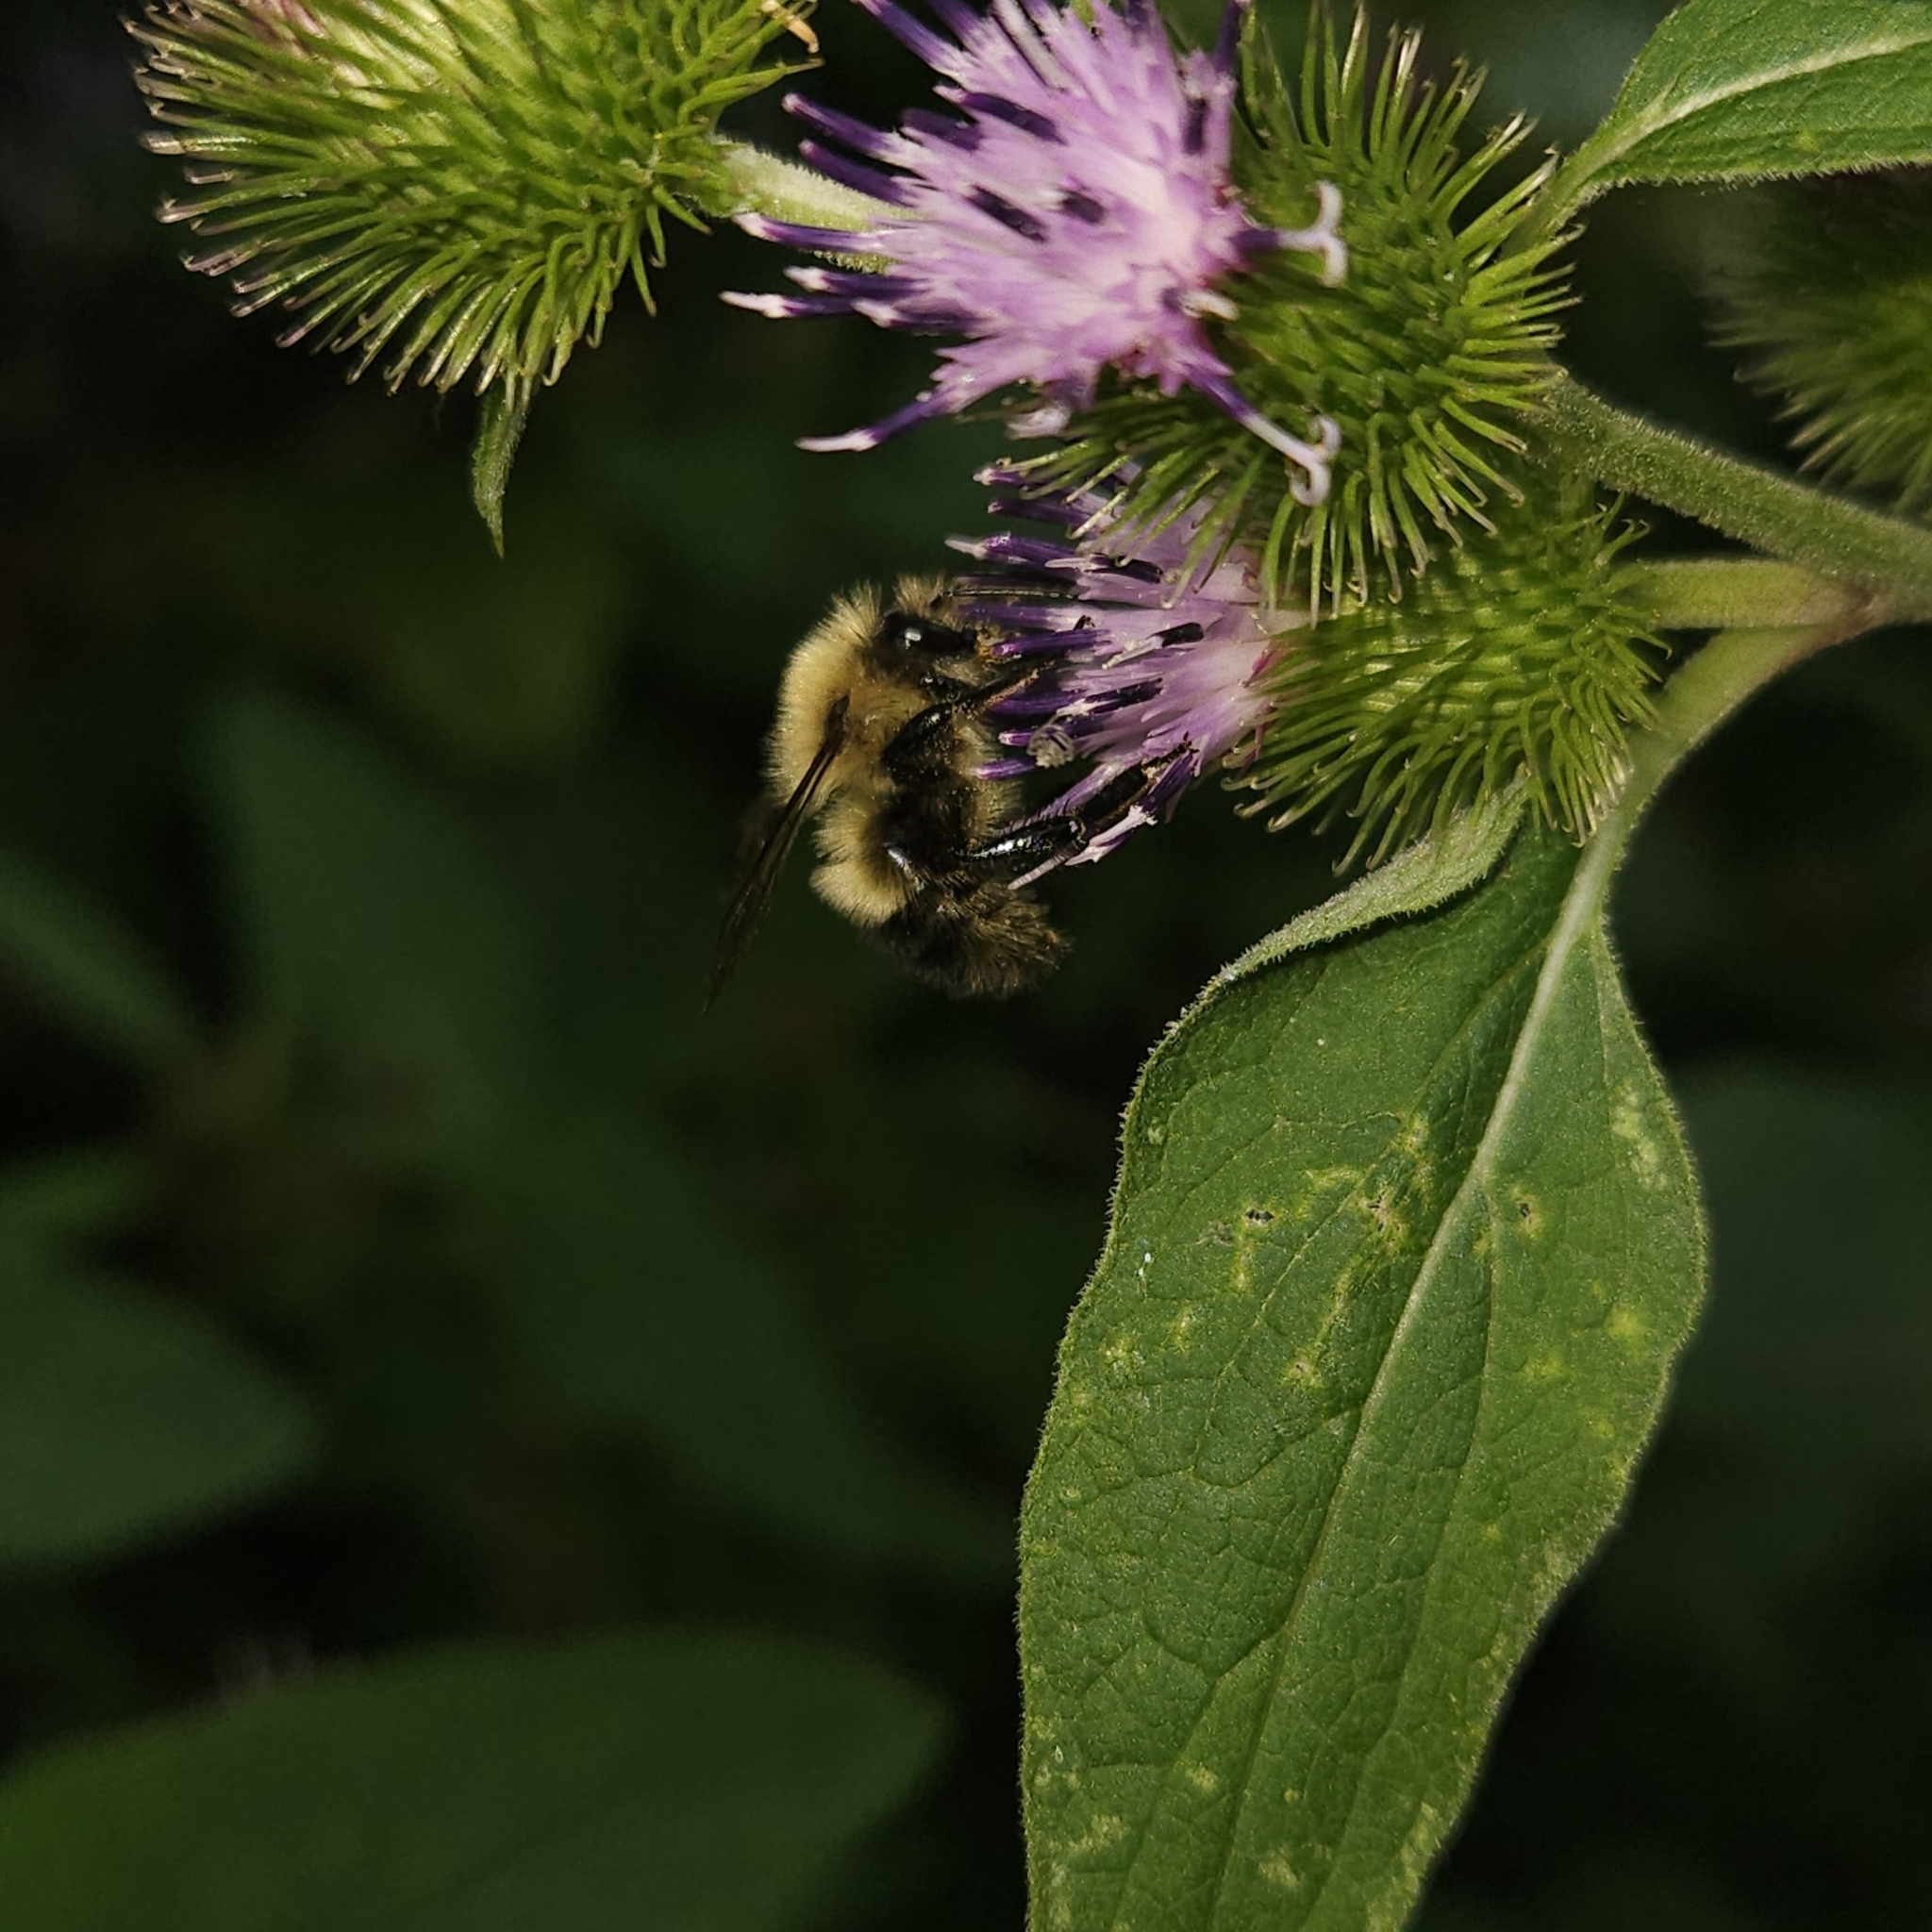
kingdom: Animalia
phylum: Arthropoda
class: Insecta
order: Hymenoptera
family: Apidae
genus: Pyrobombus
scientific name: Pyrobombus
